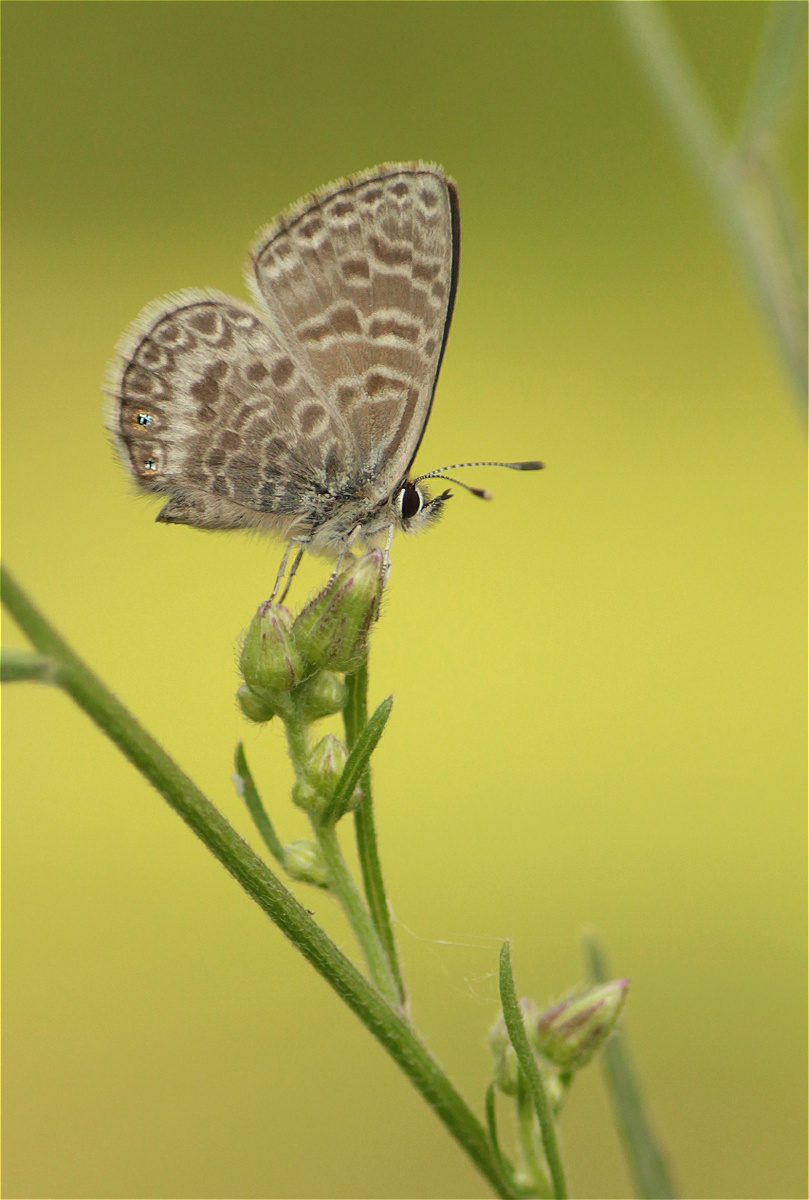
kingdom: Animalia
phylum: Arthropoda
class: Insecta
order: Lepidoptera
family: Lycaenidae
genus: Leptotes
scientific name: Leptotes
